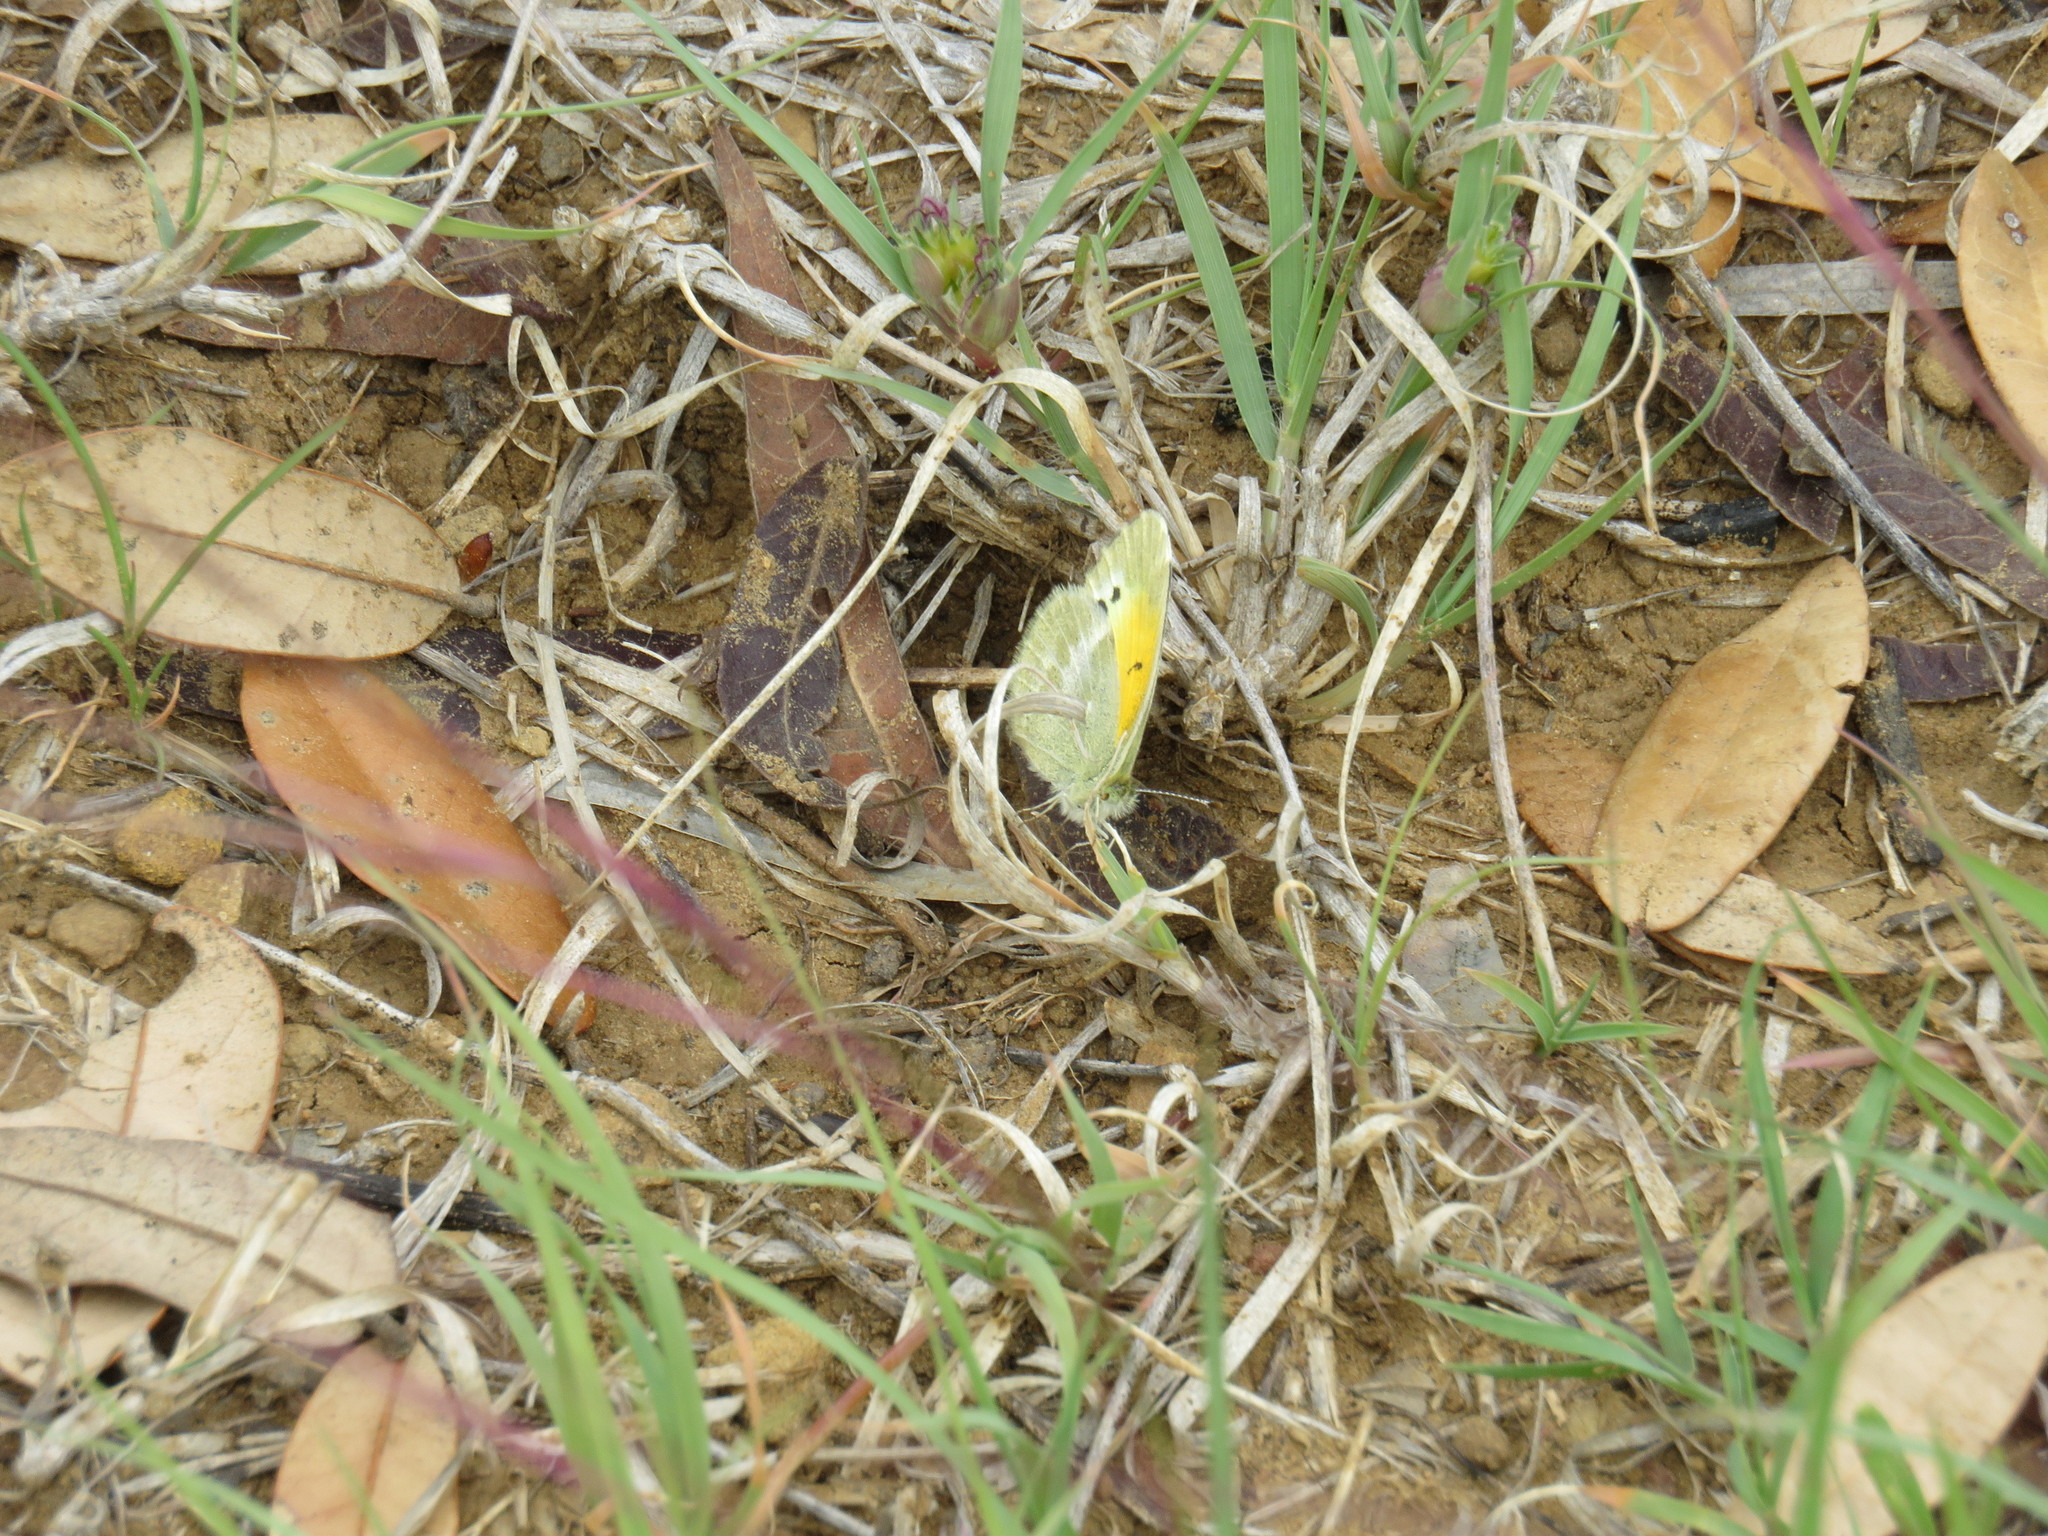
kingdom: Animalia
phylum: Arthropoda
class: Insecta
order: Lepidoptera
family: Pieridae
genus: Nathalis
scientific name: Nathalis iole
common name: Dainty sulphur
